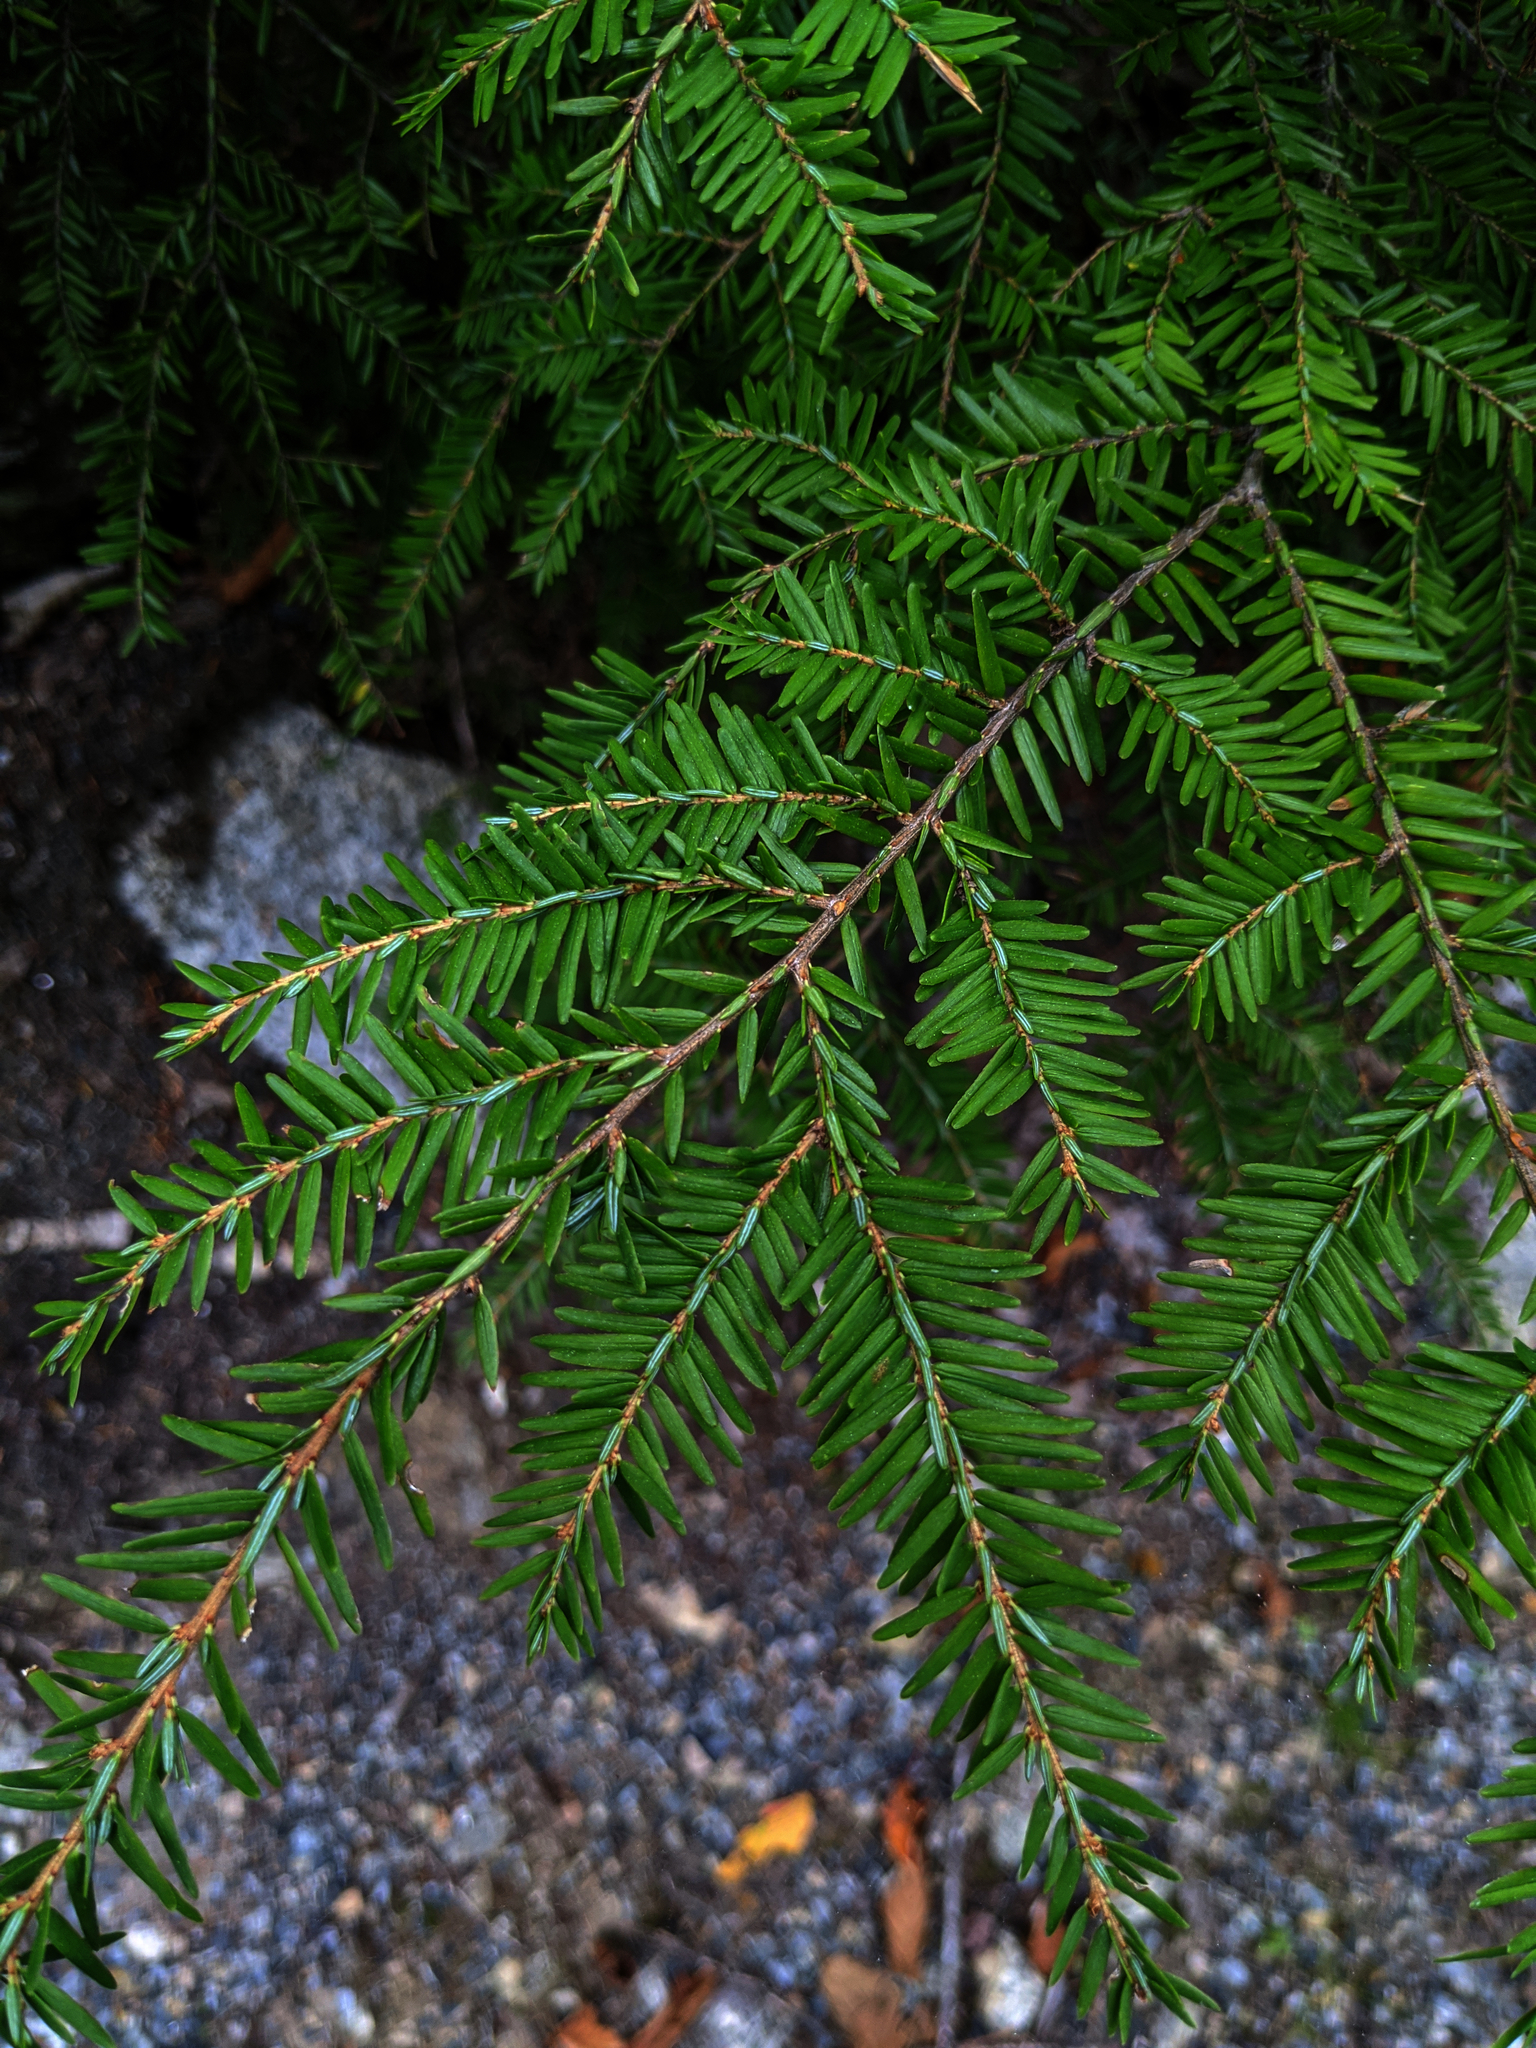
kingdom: Plantae
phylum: Tracheophyta
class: Pinopsida
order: Pinales
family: Pinaceae
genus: Tsuga
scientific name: Tsuga canadensis
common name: Eastern hemlock
